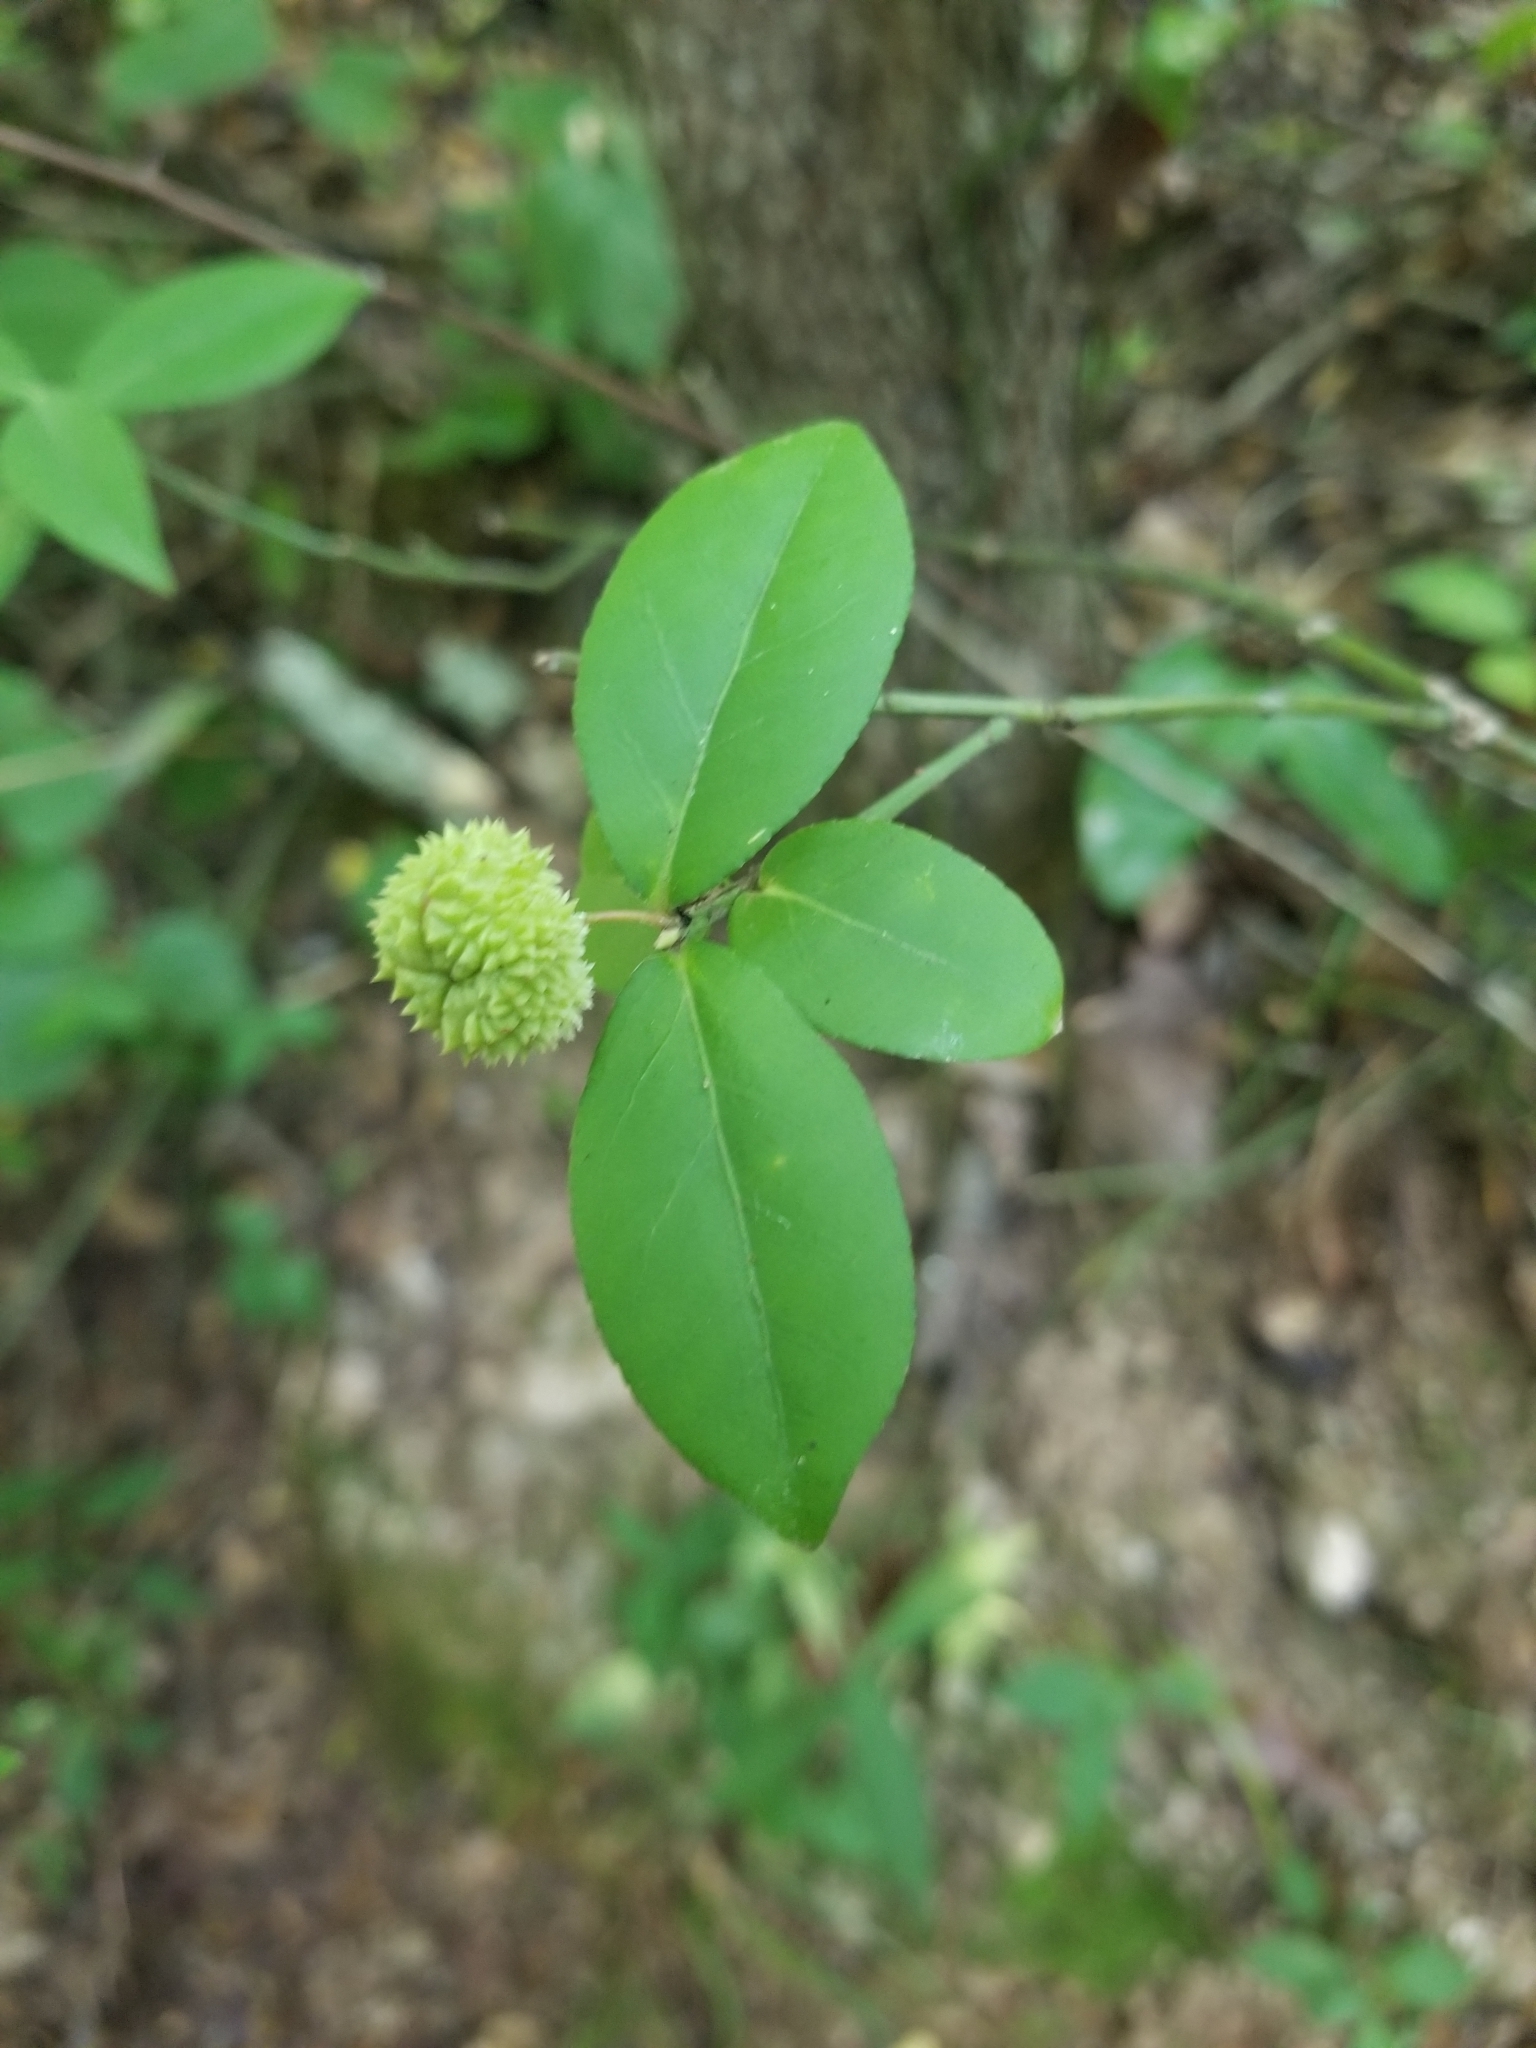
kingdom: Plantae
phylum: Tracheophyta
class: Magnoliopsida
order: Celastrales
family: Celastraceae
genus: Euonymus
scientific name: Euonymus americanus
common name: Bursting-heart
